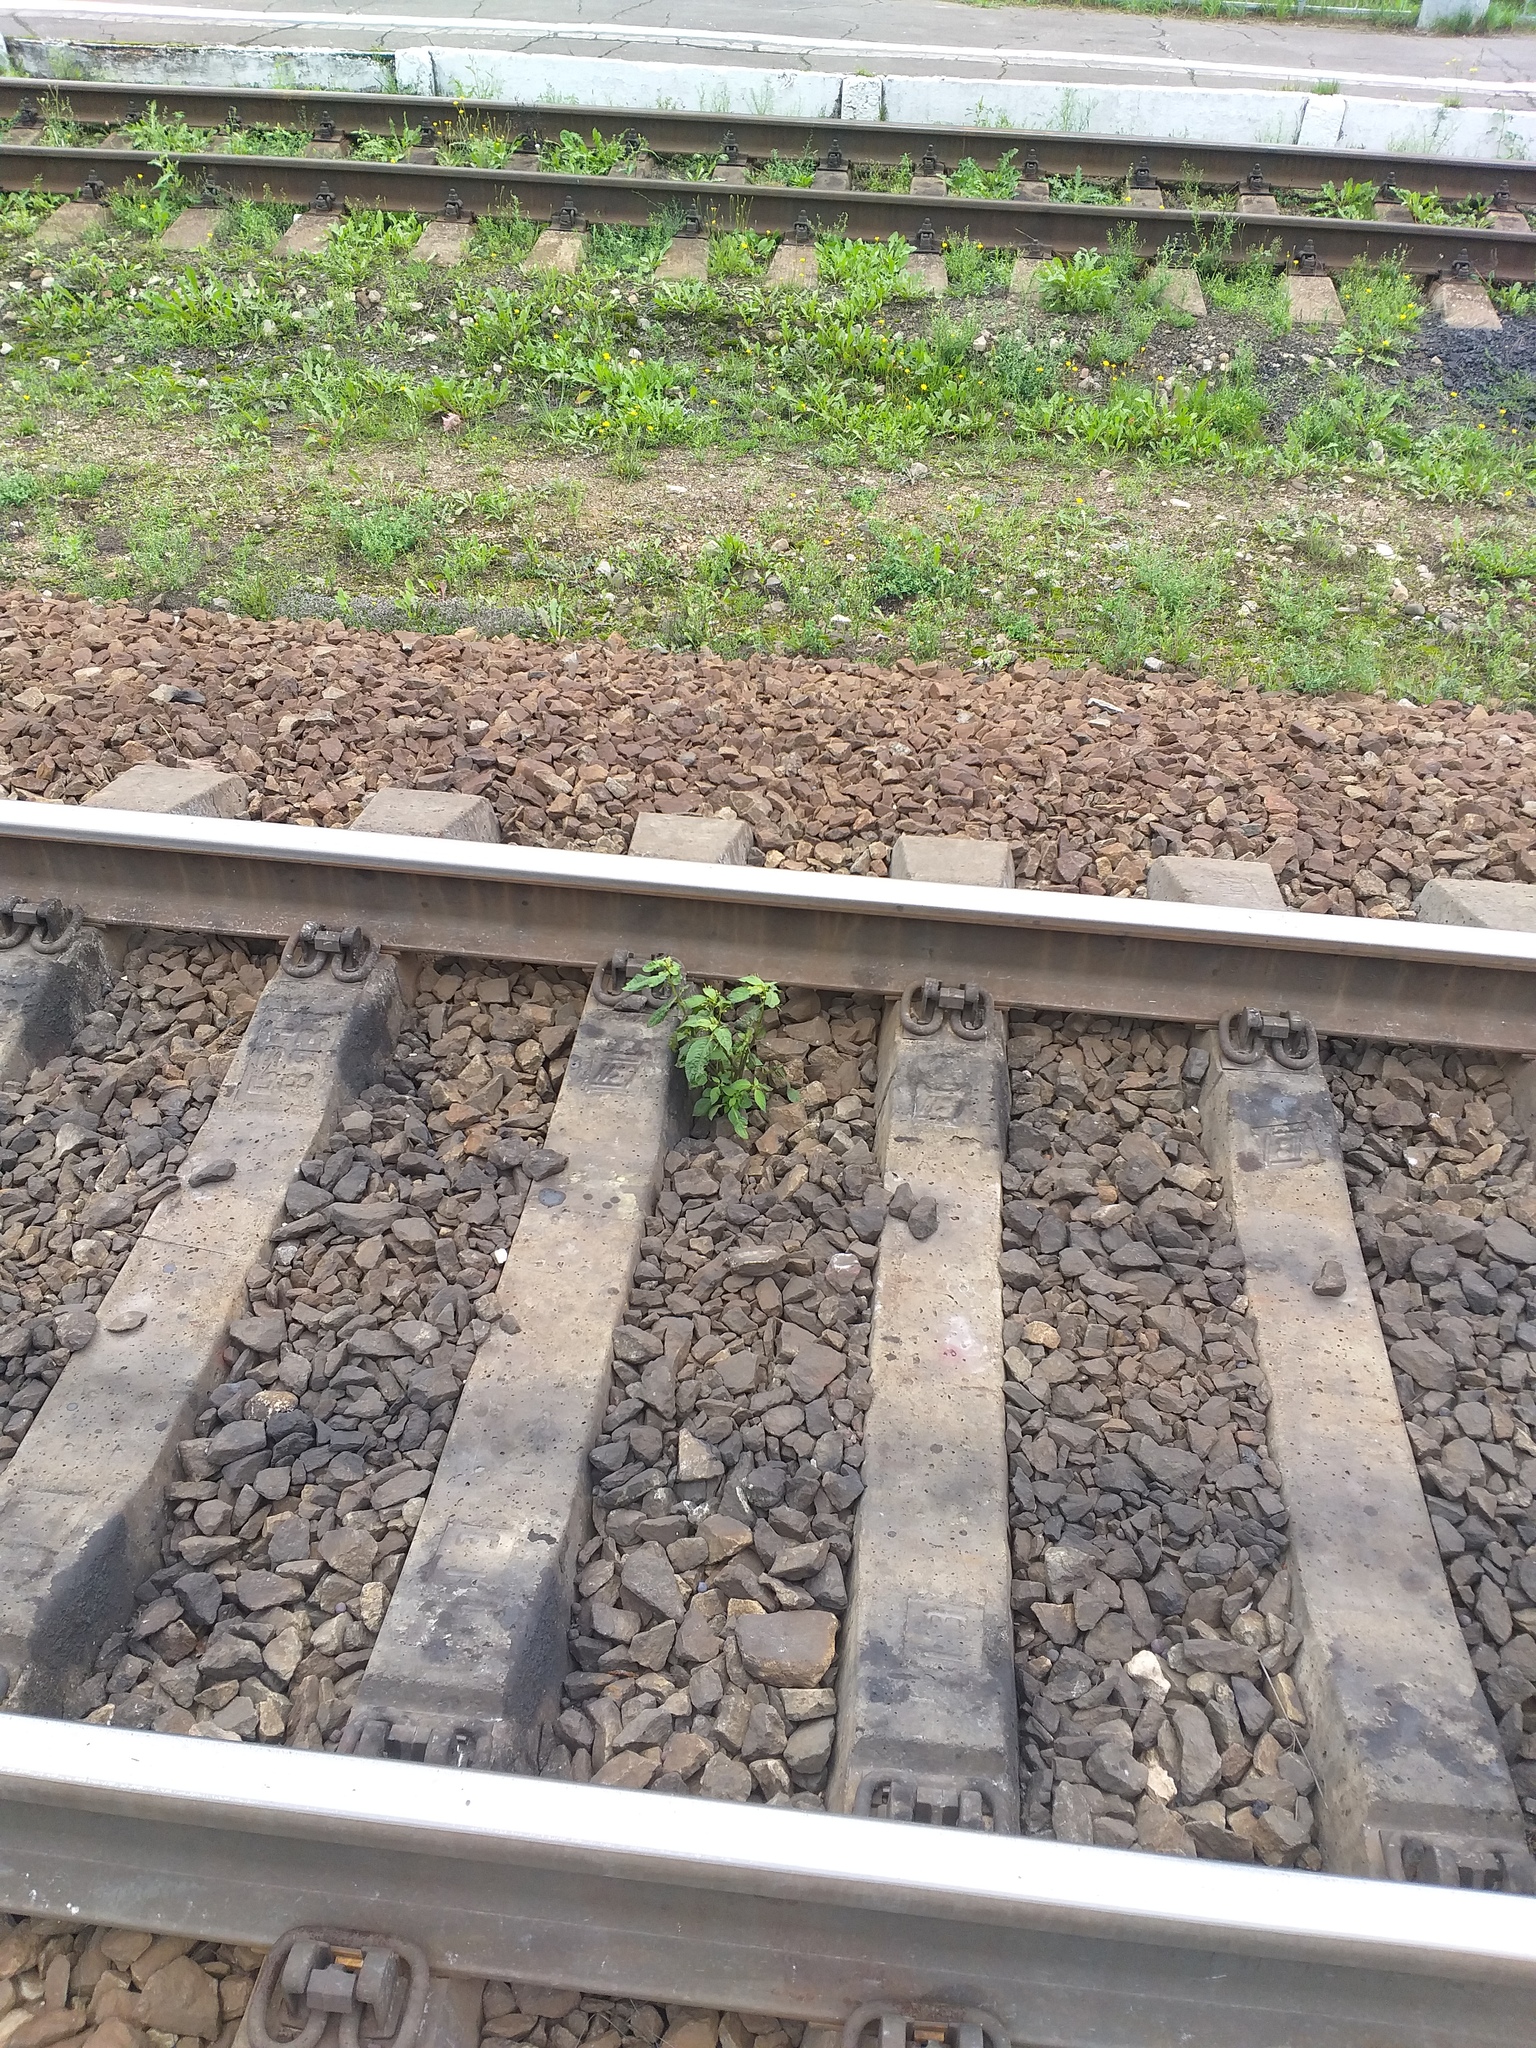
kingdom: Plantae
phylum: Tracheophyta
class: Magnoliopsida
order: Ericales
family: Balsaminaceae
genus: Impatiens
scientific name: Impatiens parviflora
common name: Small balsam
